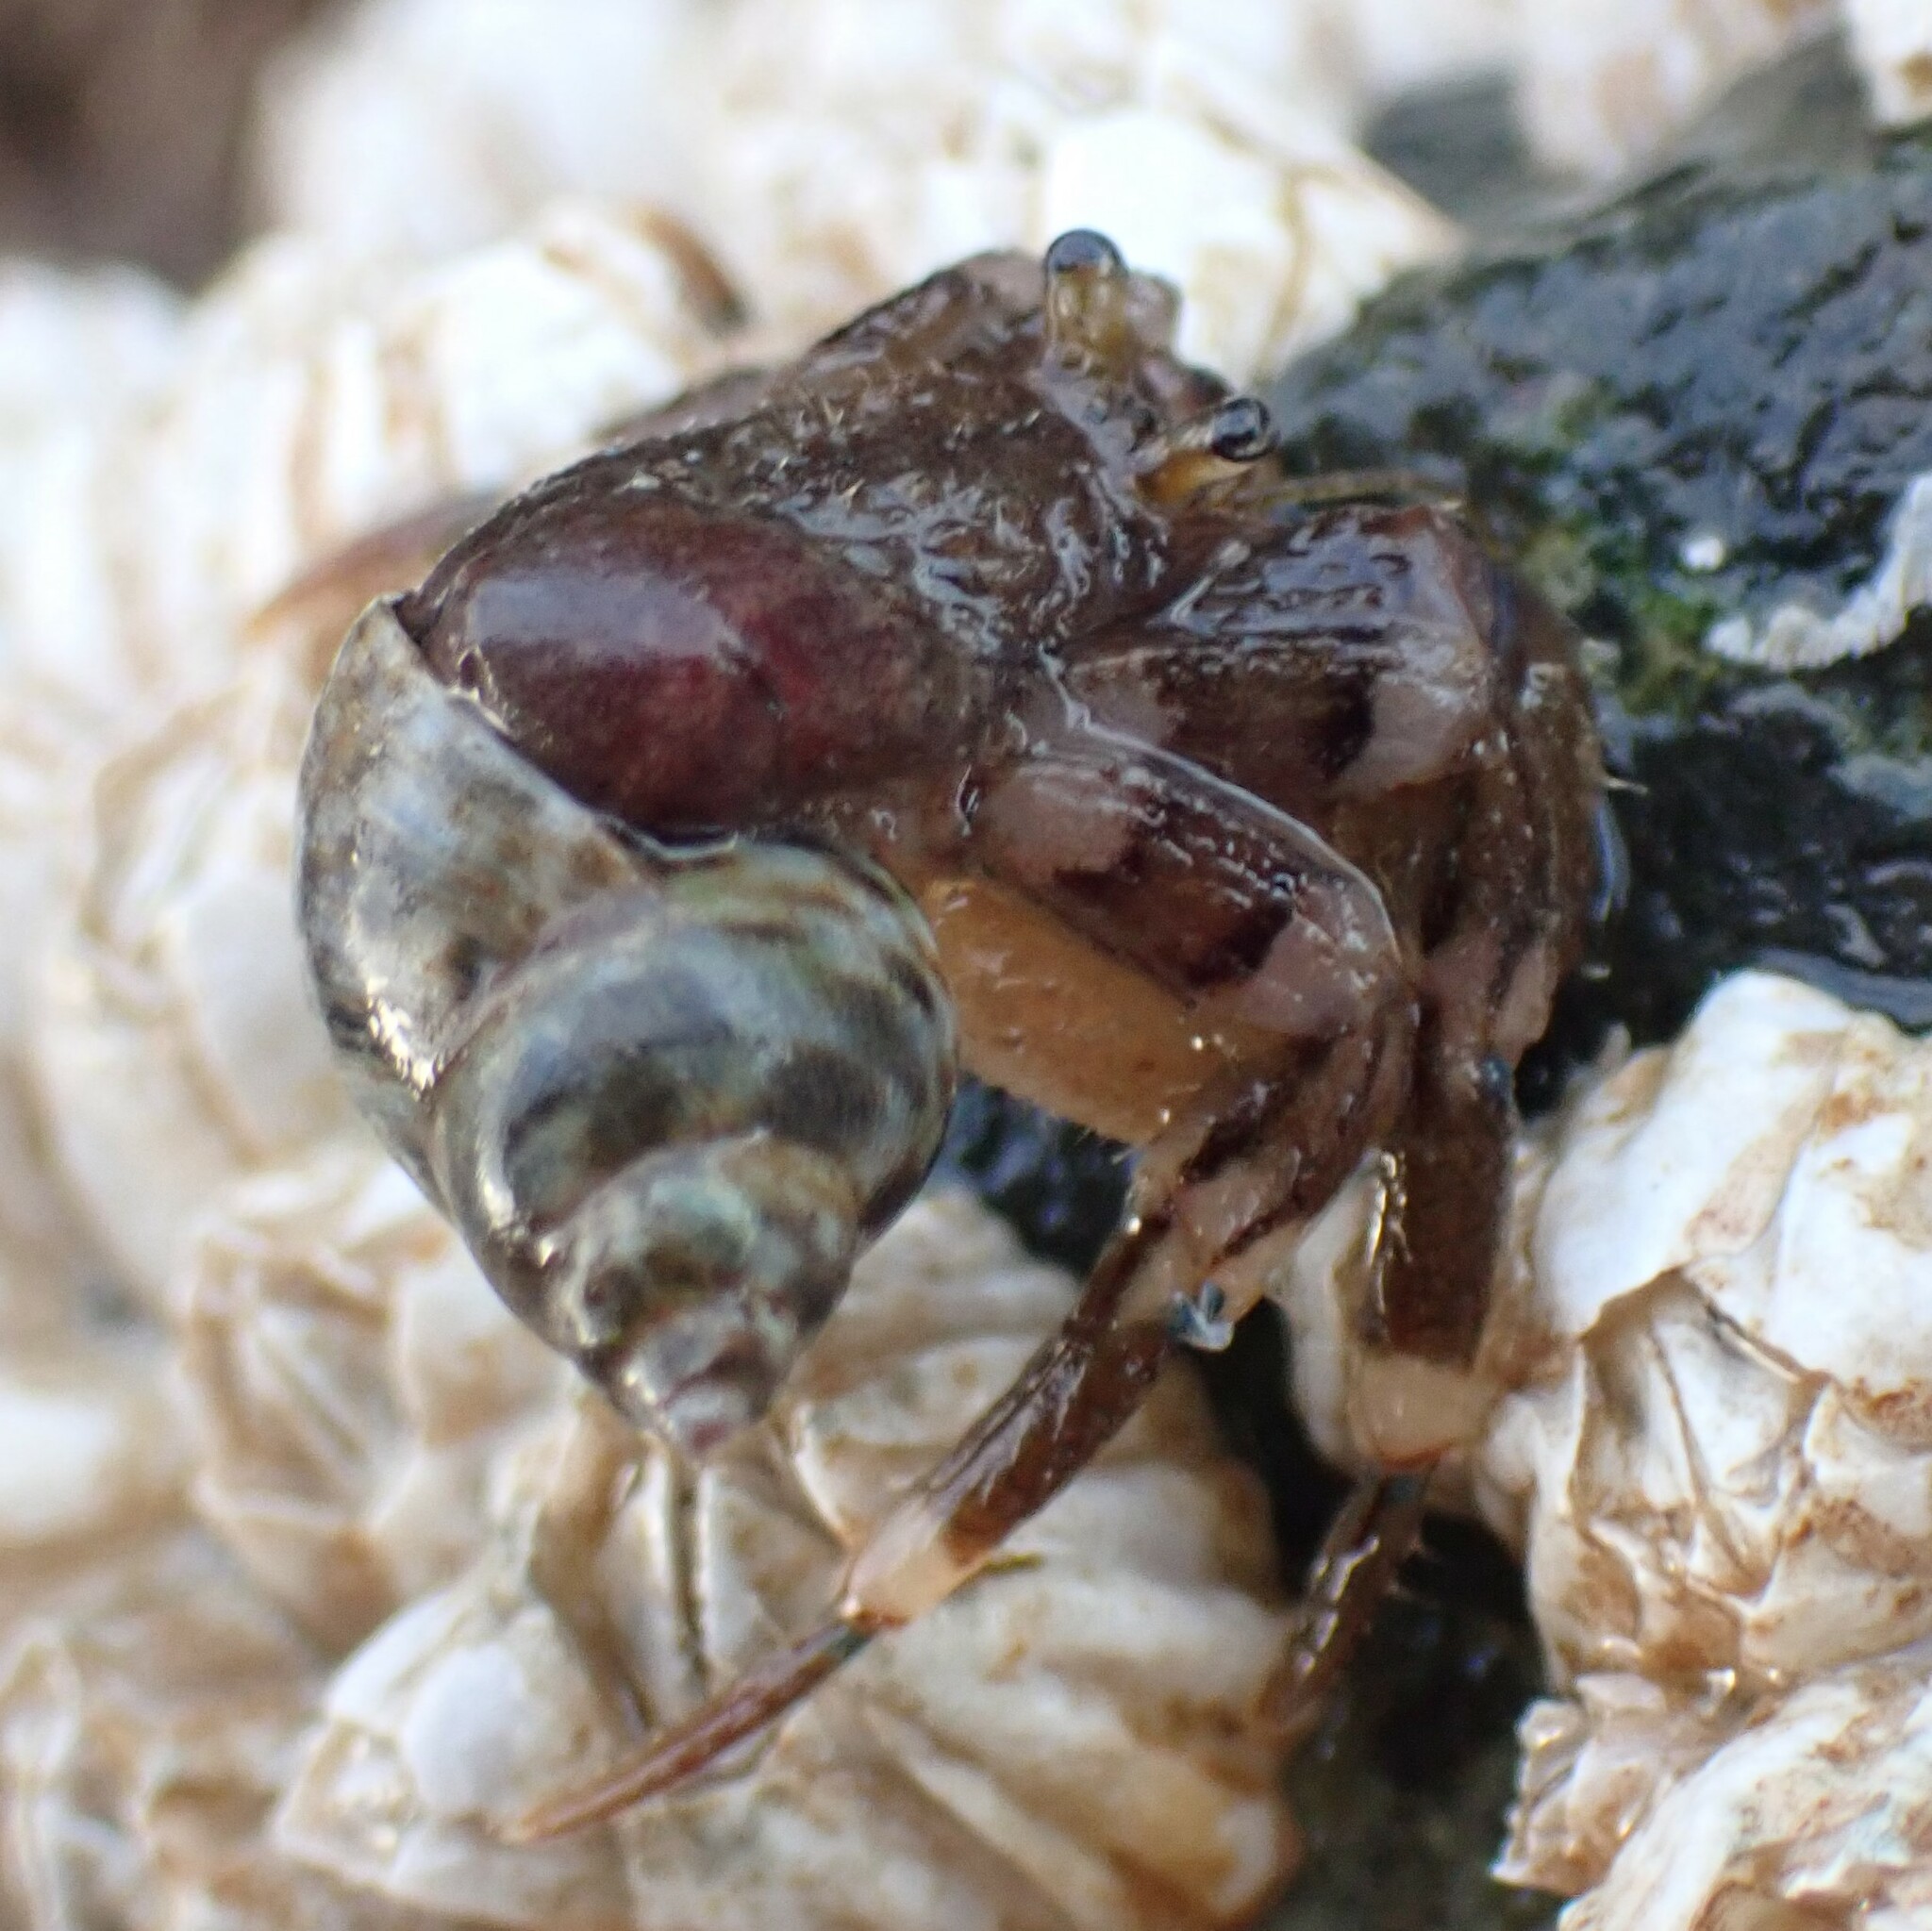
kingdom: Animalia
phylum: Arthropoda
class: Malacostraca
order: Decapoda
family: Paguridae
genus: Pagurus
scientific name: Pagurus hirsutiusculus
